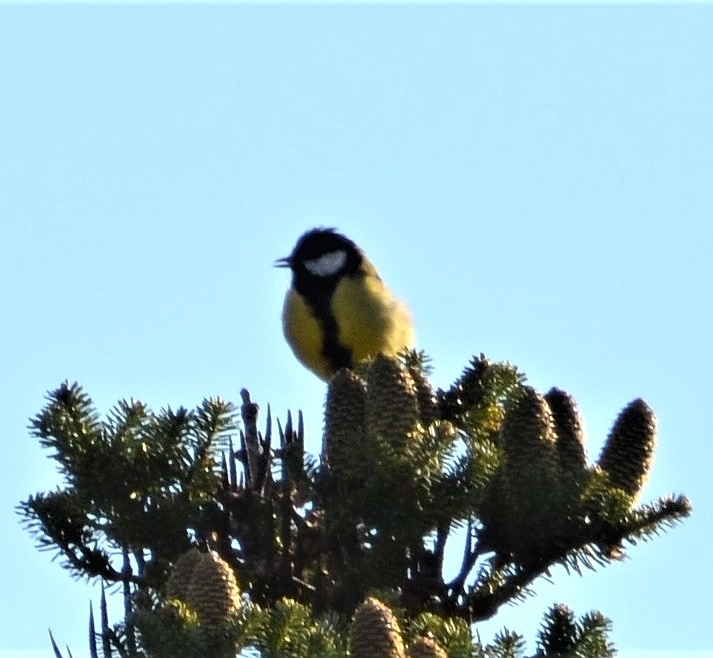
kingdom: Animalia
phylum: Chordata
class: Aves
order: Passeriformes
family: Paridae
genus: Parus
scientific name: Parus major
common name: Great tit
